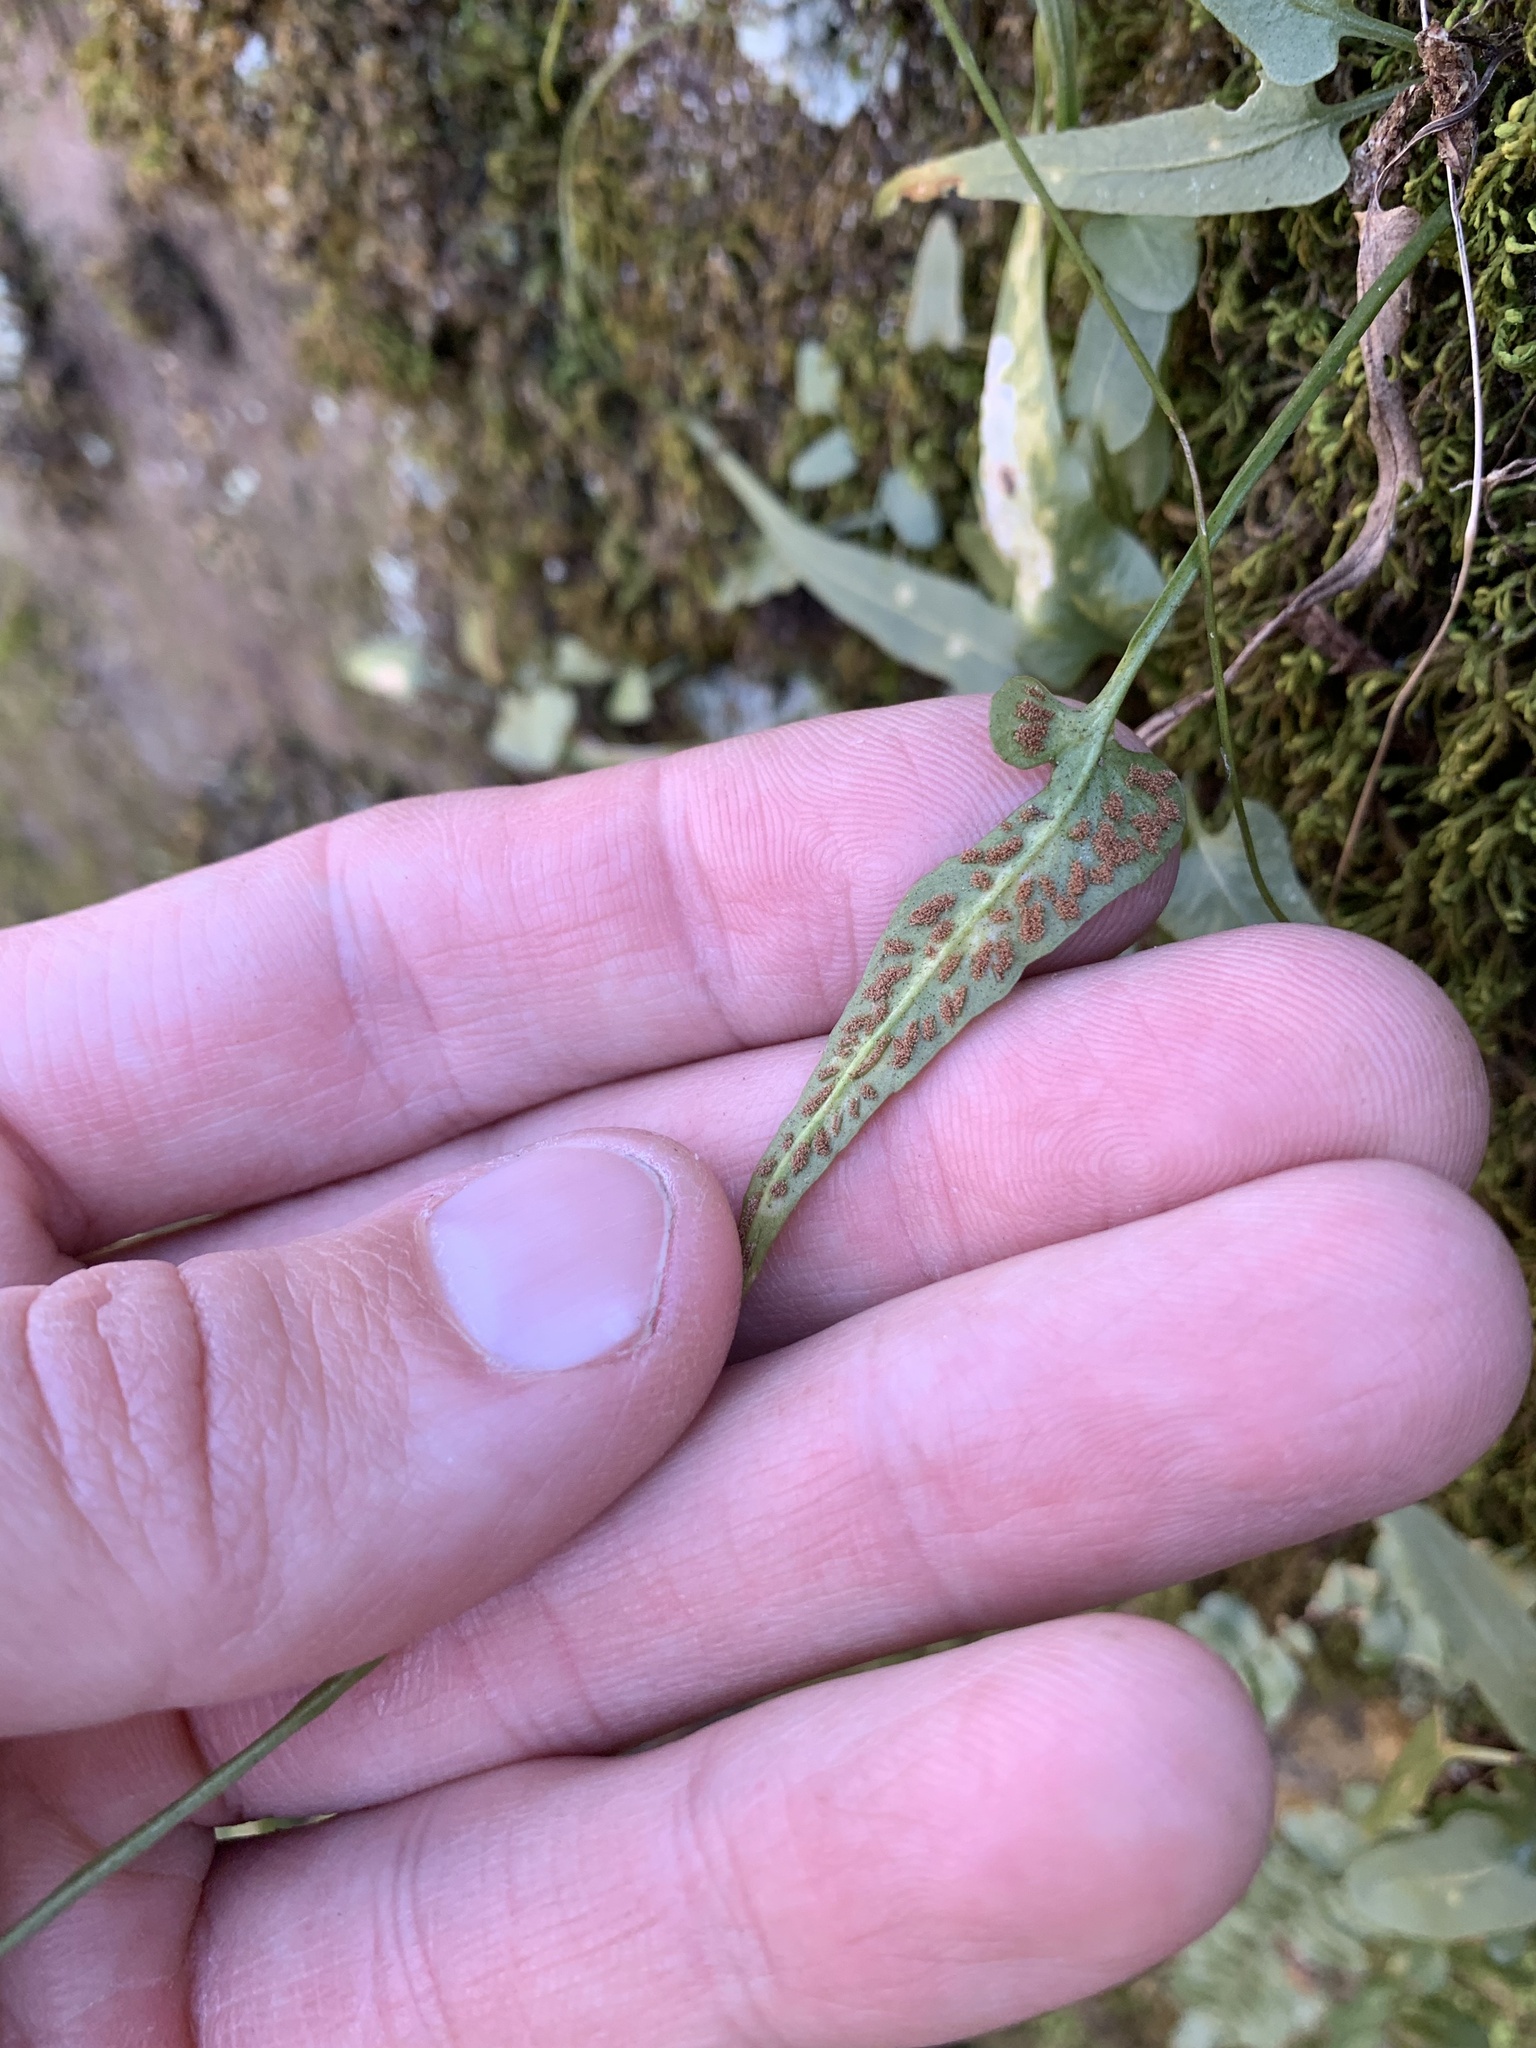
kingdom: Plantae
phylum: Tracheophyta
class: Polypodiopsida
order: Polypodiales
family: Aspleniaceae
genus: Asplenium
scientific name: Asplenium rhizophyllum
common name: Walking fern
